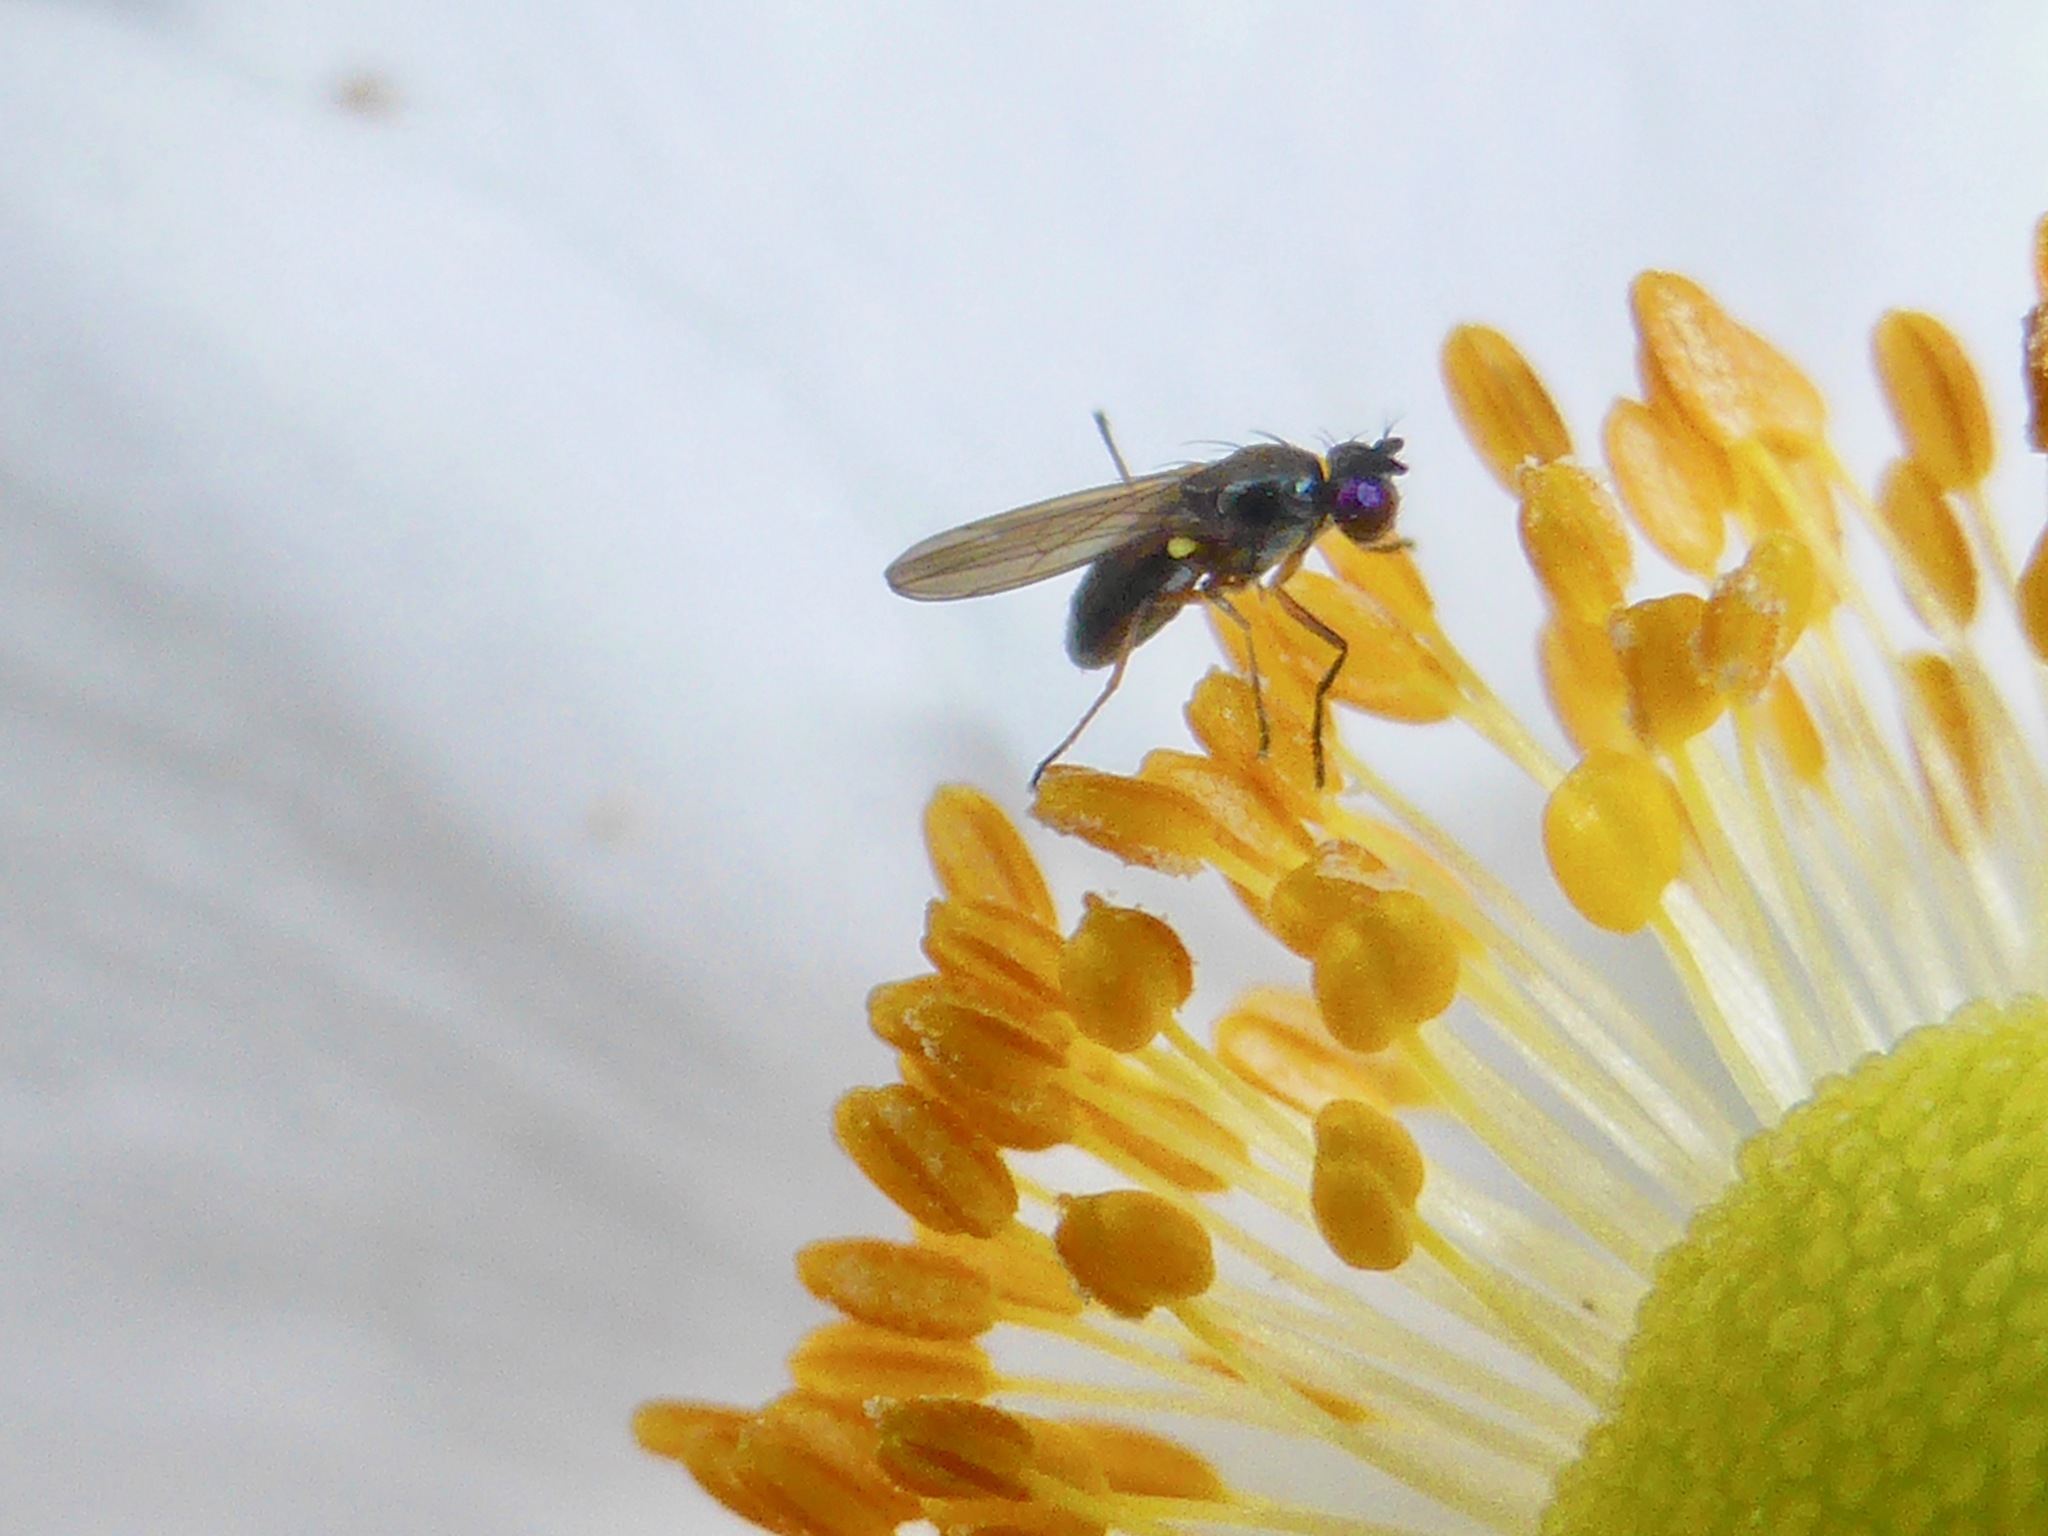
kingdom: Animalia
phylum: Arthropoda
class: Insecta
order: Diptera
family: Ephydridae
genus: Hydrellia
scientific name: Hydrellia tritici
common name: Shore fly
